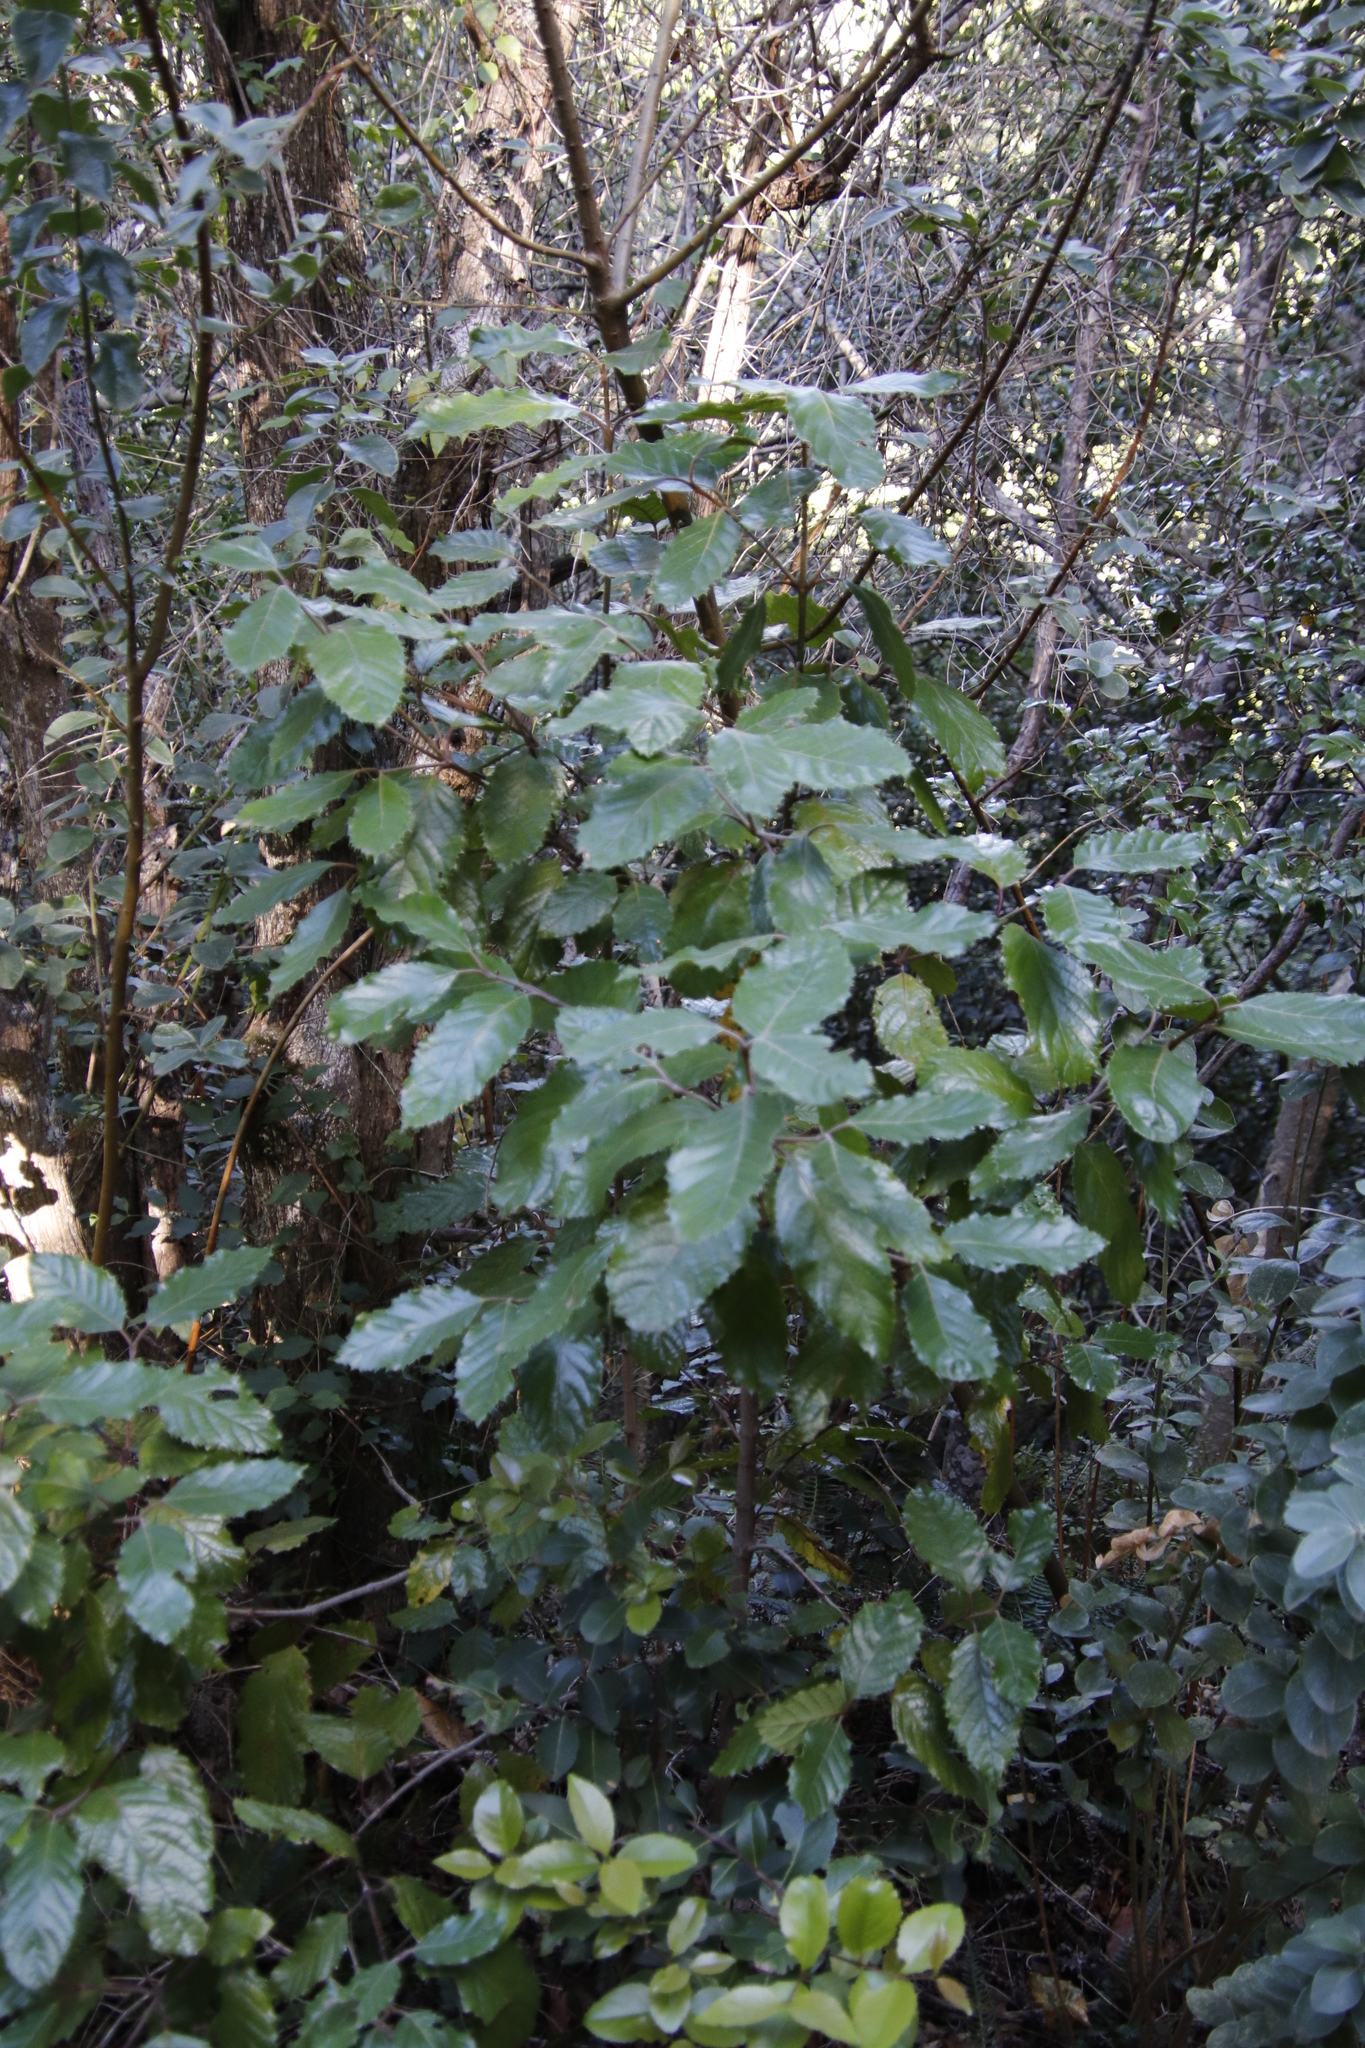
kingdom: Plantae
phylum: Tracheophyta
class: Magnoliopsida
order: Cornales
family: Curtisiaceae
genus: Curtisia
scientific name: Curtisia dentata
